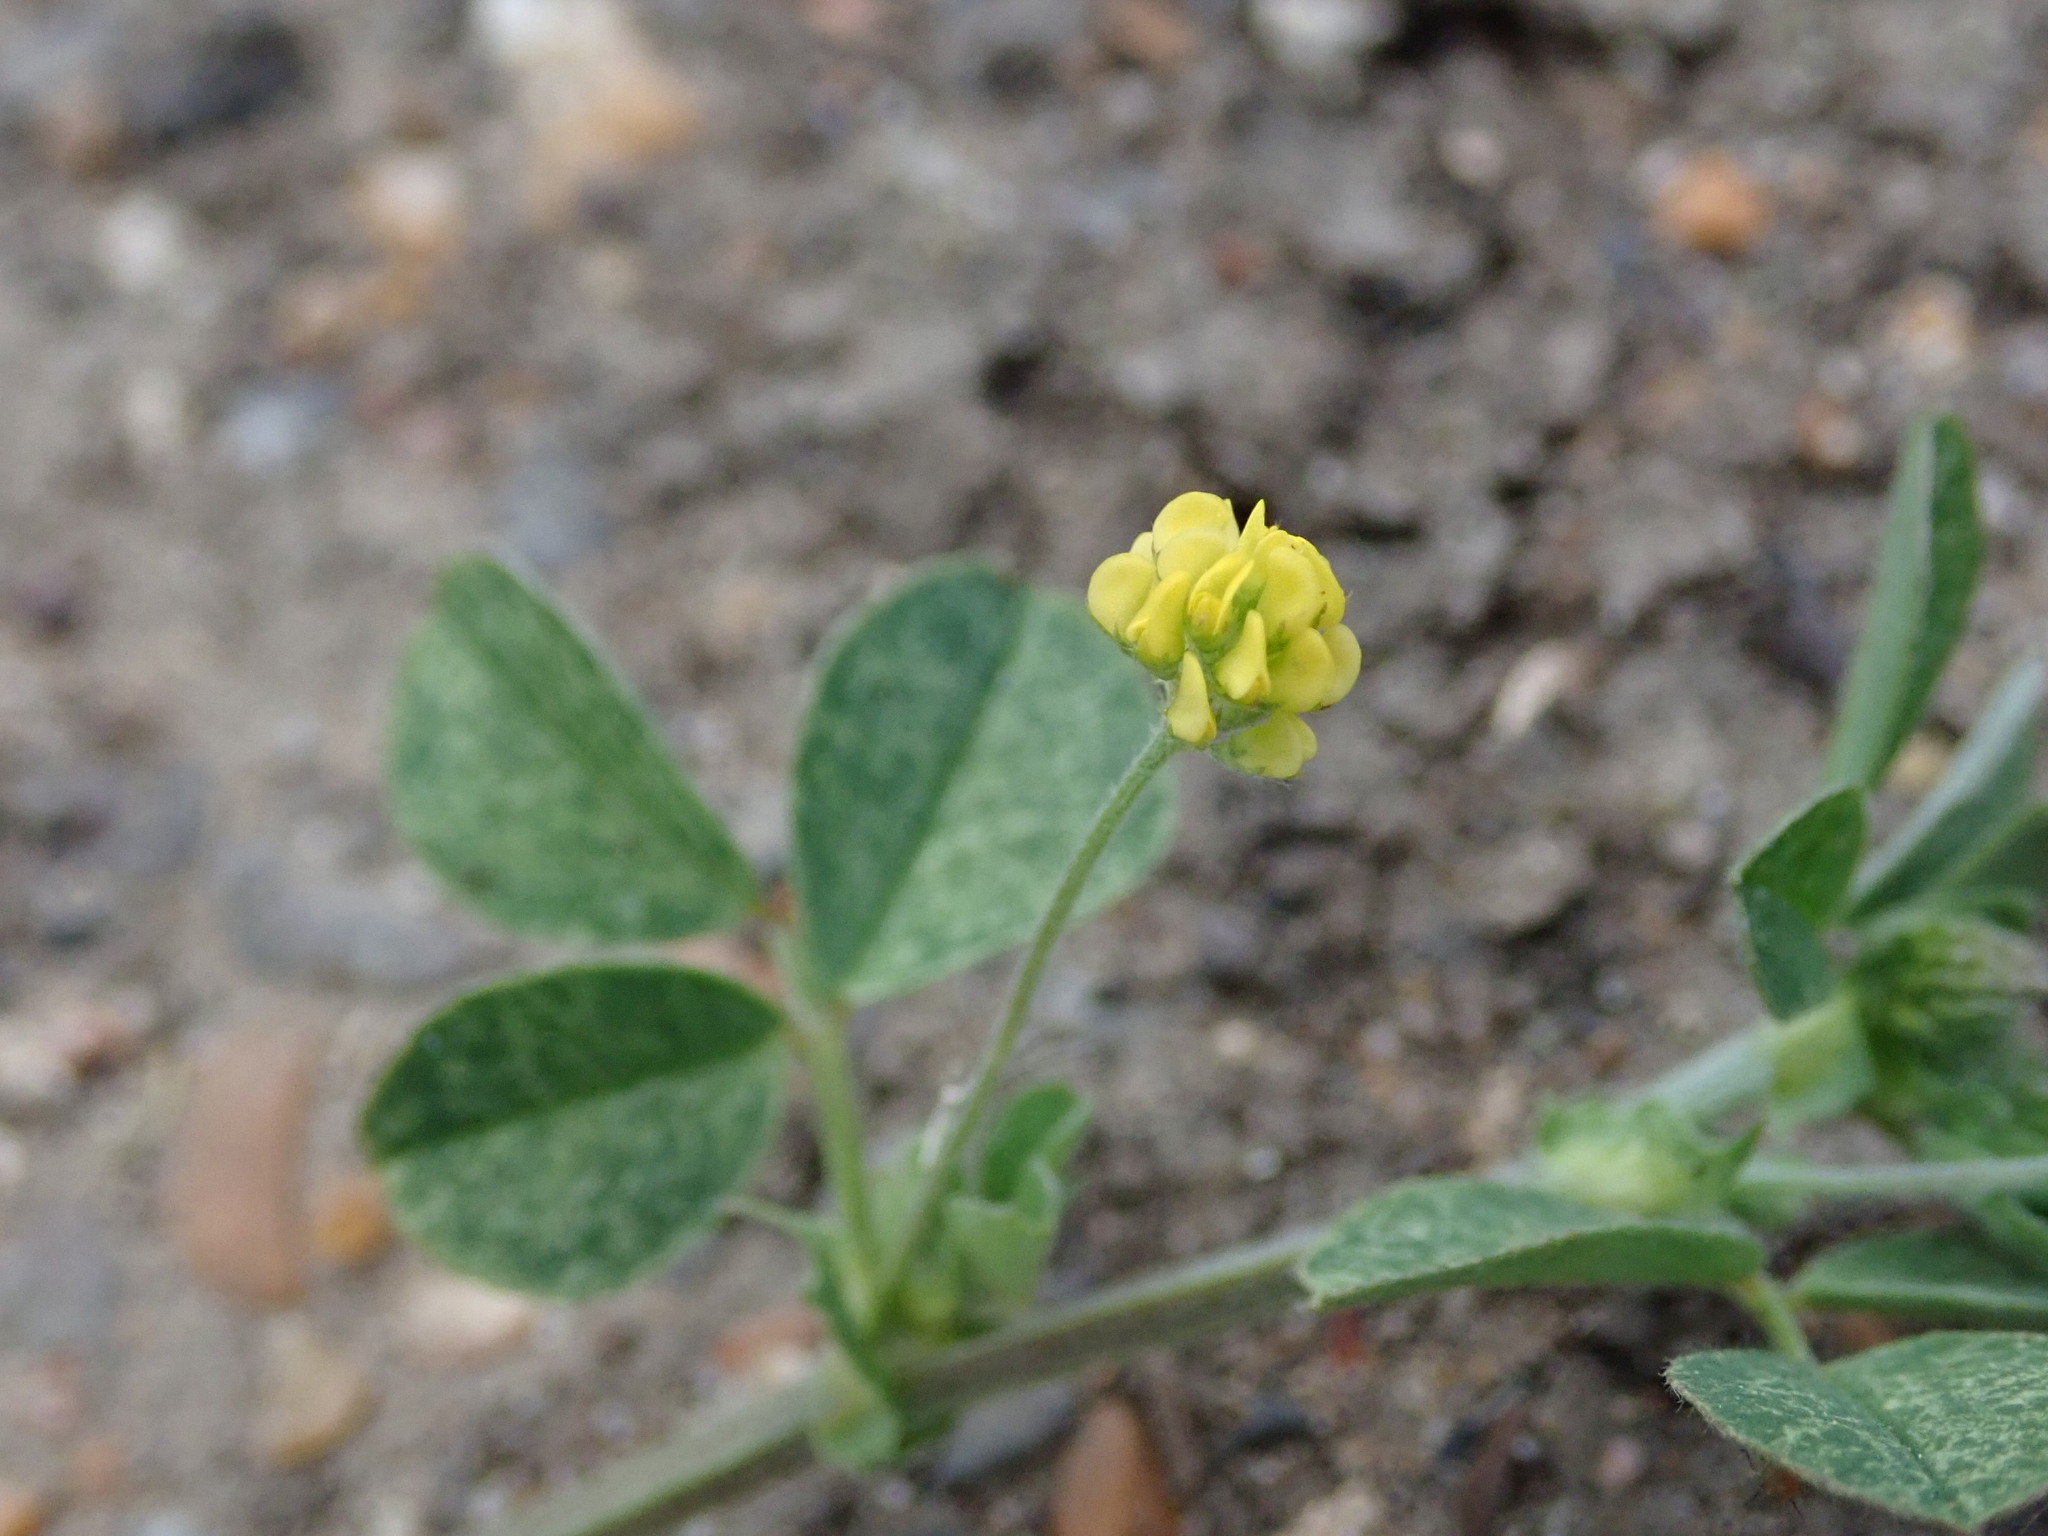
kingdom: Plantae
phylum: Tracheophyta
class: Magnoliopsida
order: Fabales
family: Fabaceae
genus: Medicago
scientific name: Medicago lupulina
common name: Black medick
